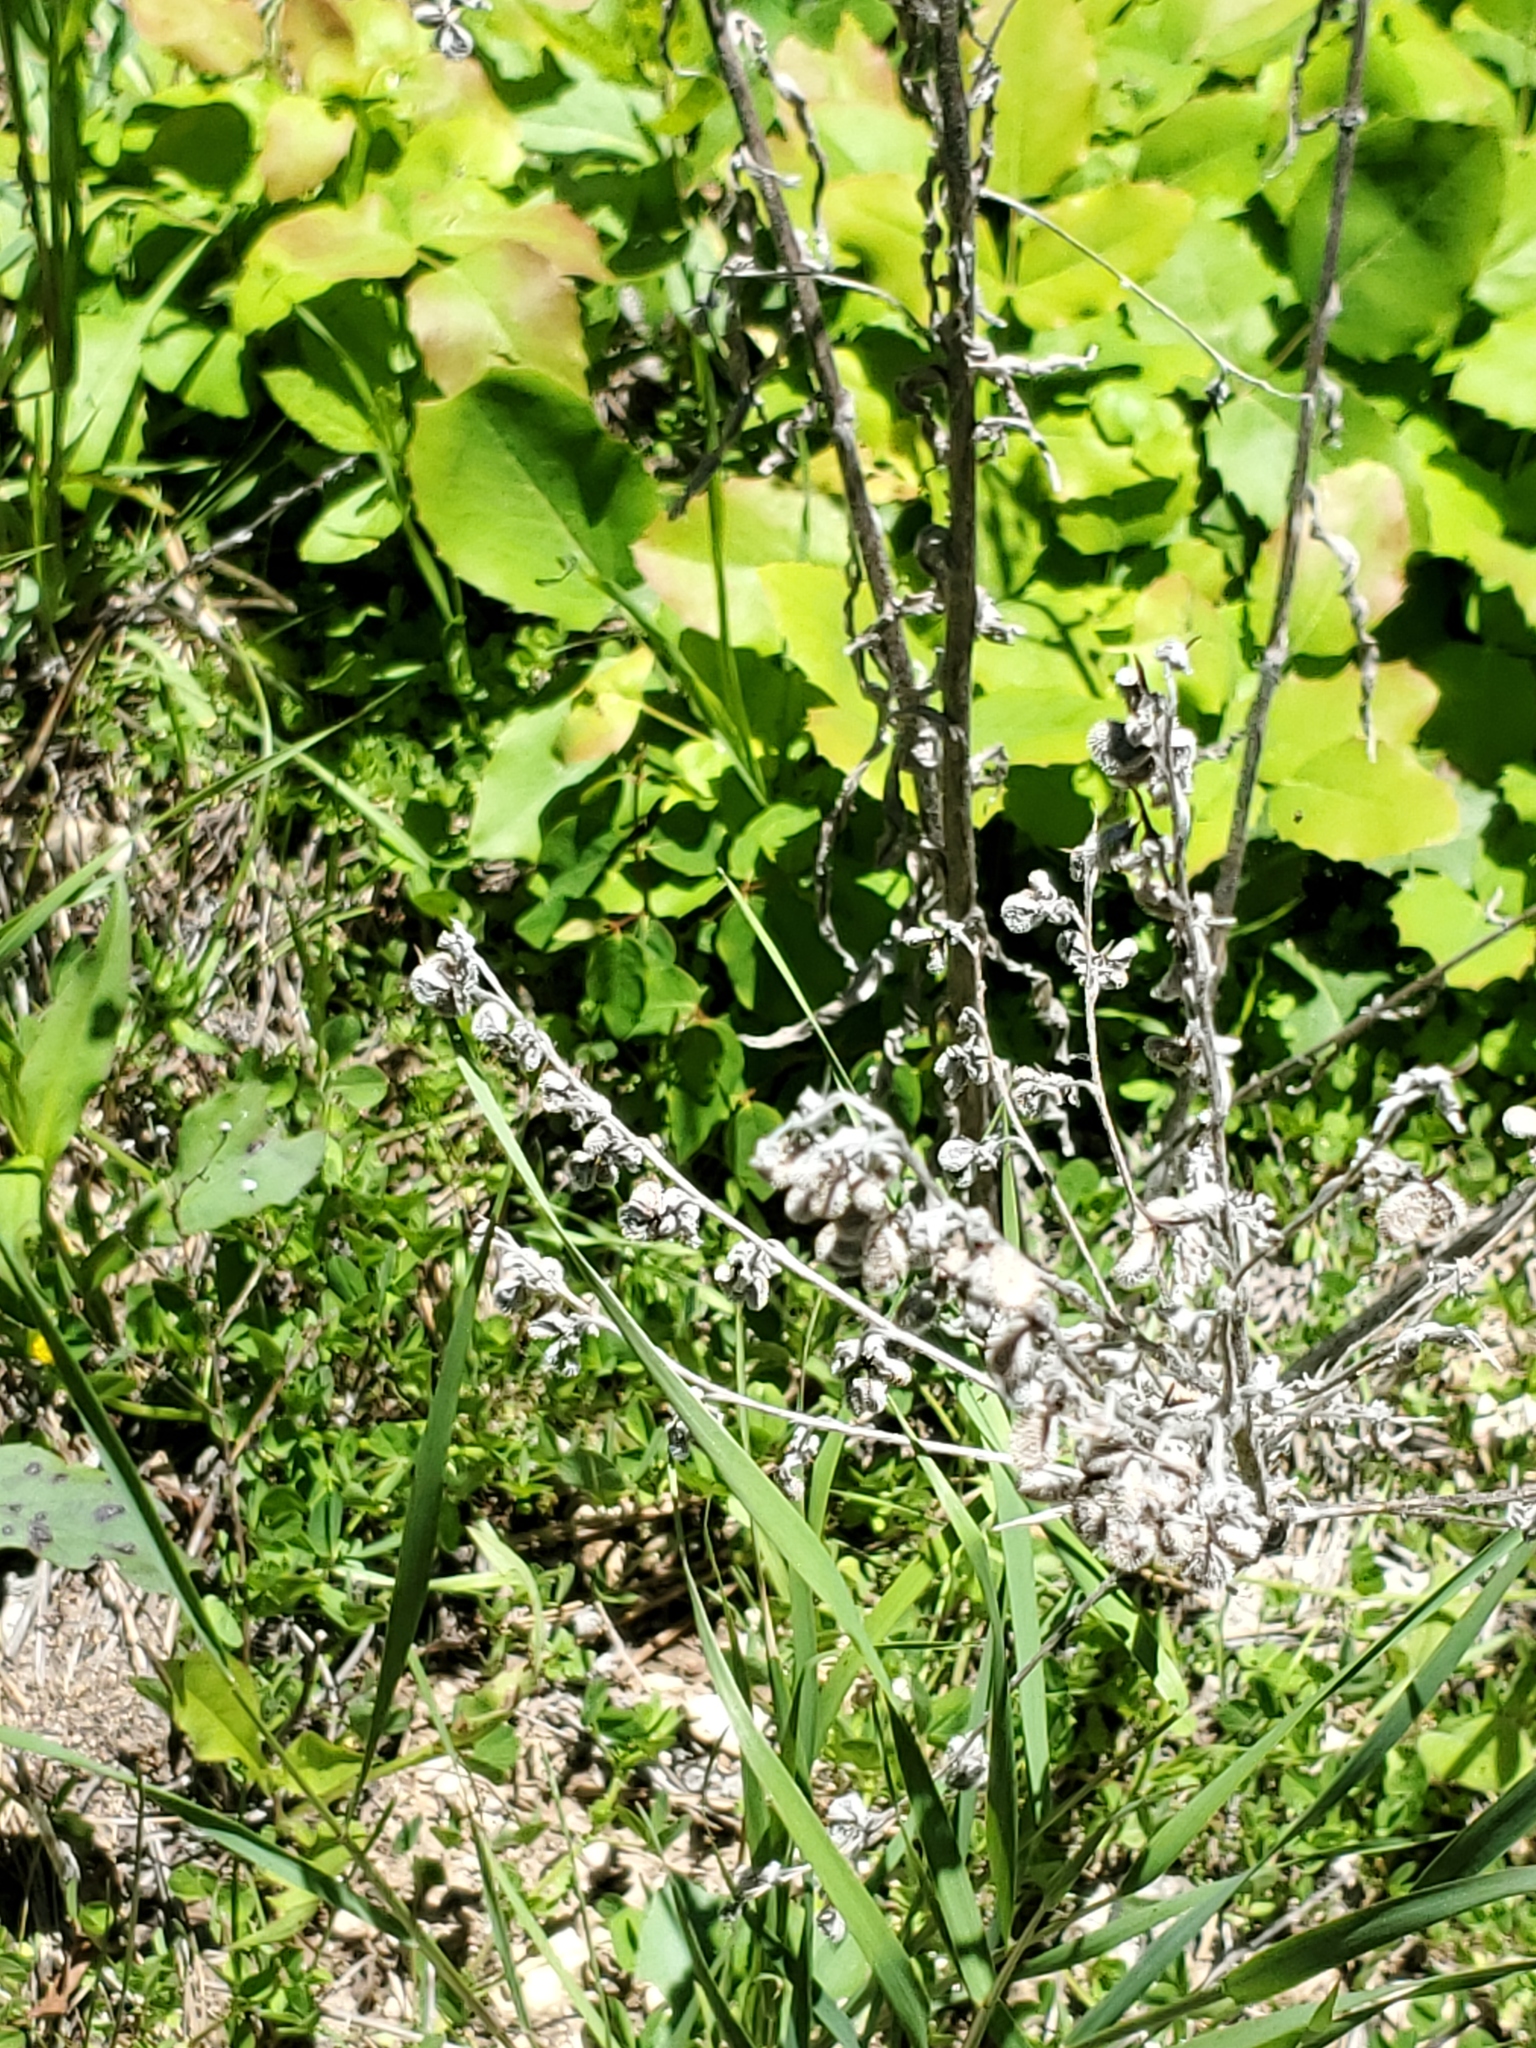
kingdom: Plantae
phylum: Tracheophyta
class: Magnoliopsida
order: Boraginales
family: Boraginaceae
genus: Cynoglossum
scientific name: Cynoglossum officinale
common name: Hound's-tongue
